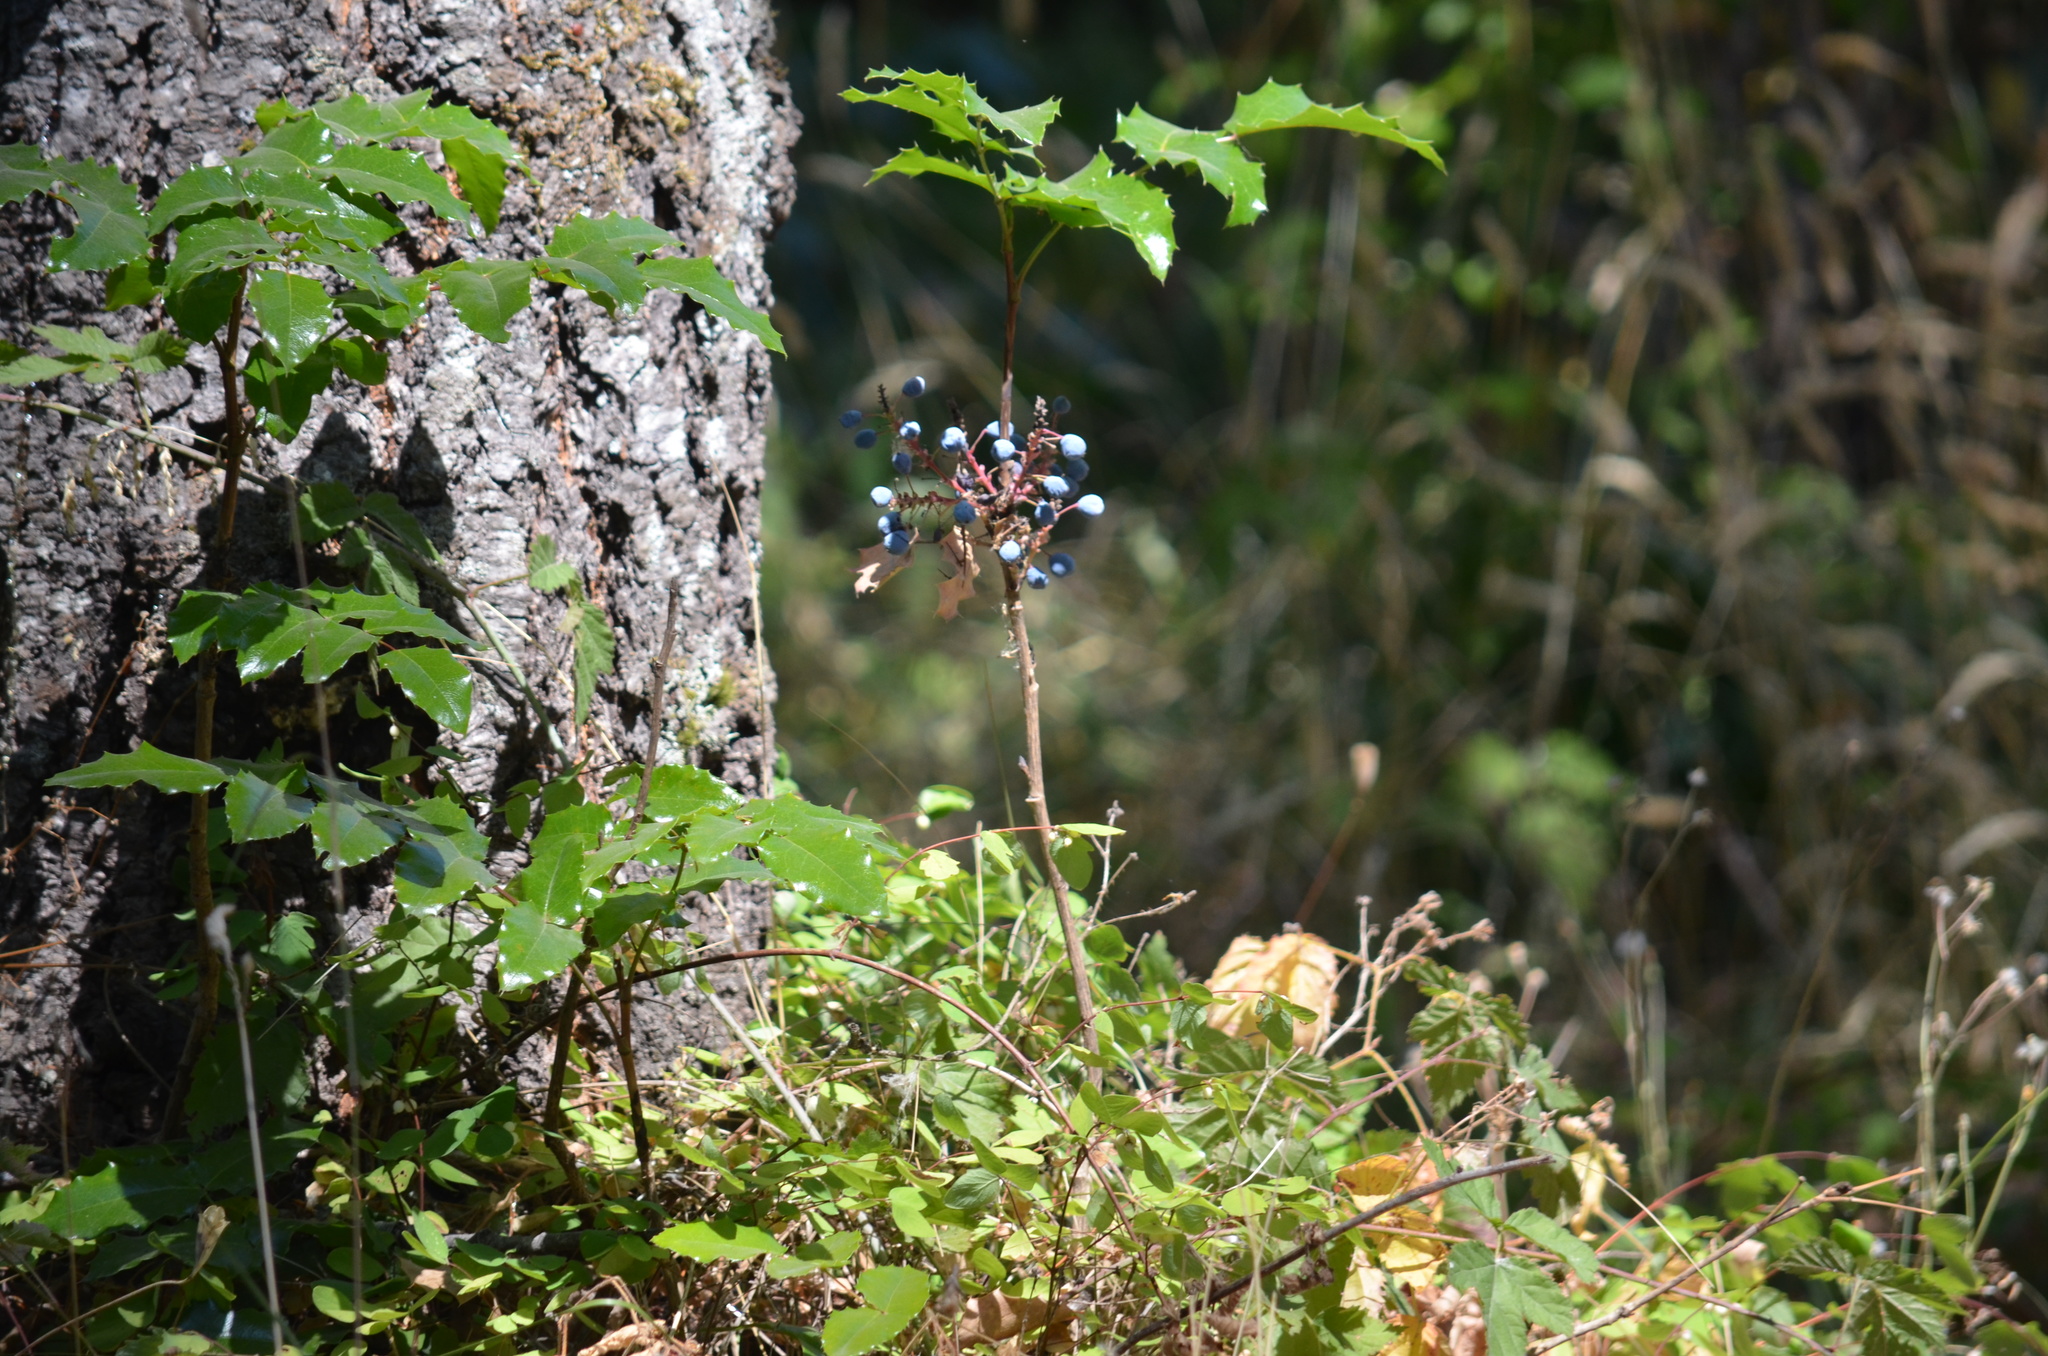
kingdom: Plantae
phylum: Tracheophyta
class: Magnoliopsida
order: Ranunculales
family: Berberidaceae
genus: Mahonia
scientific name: Mahonia aquifolium
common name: Oregon-grape
